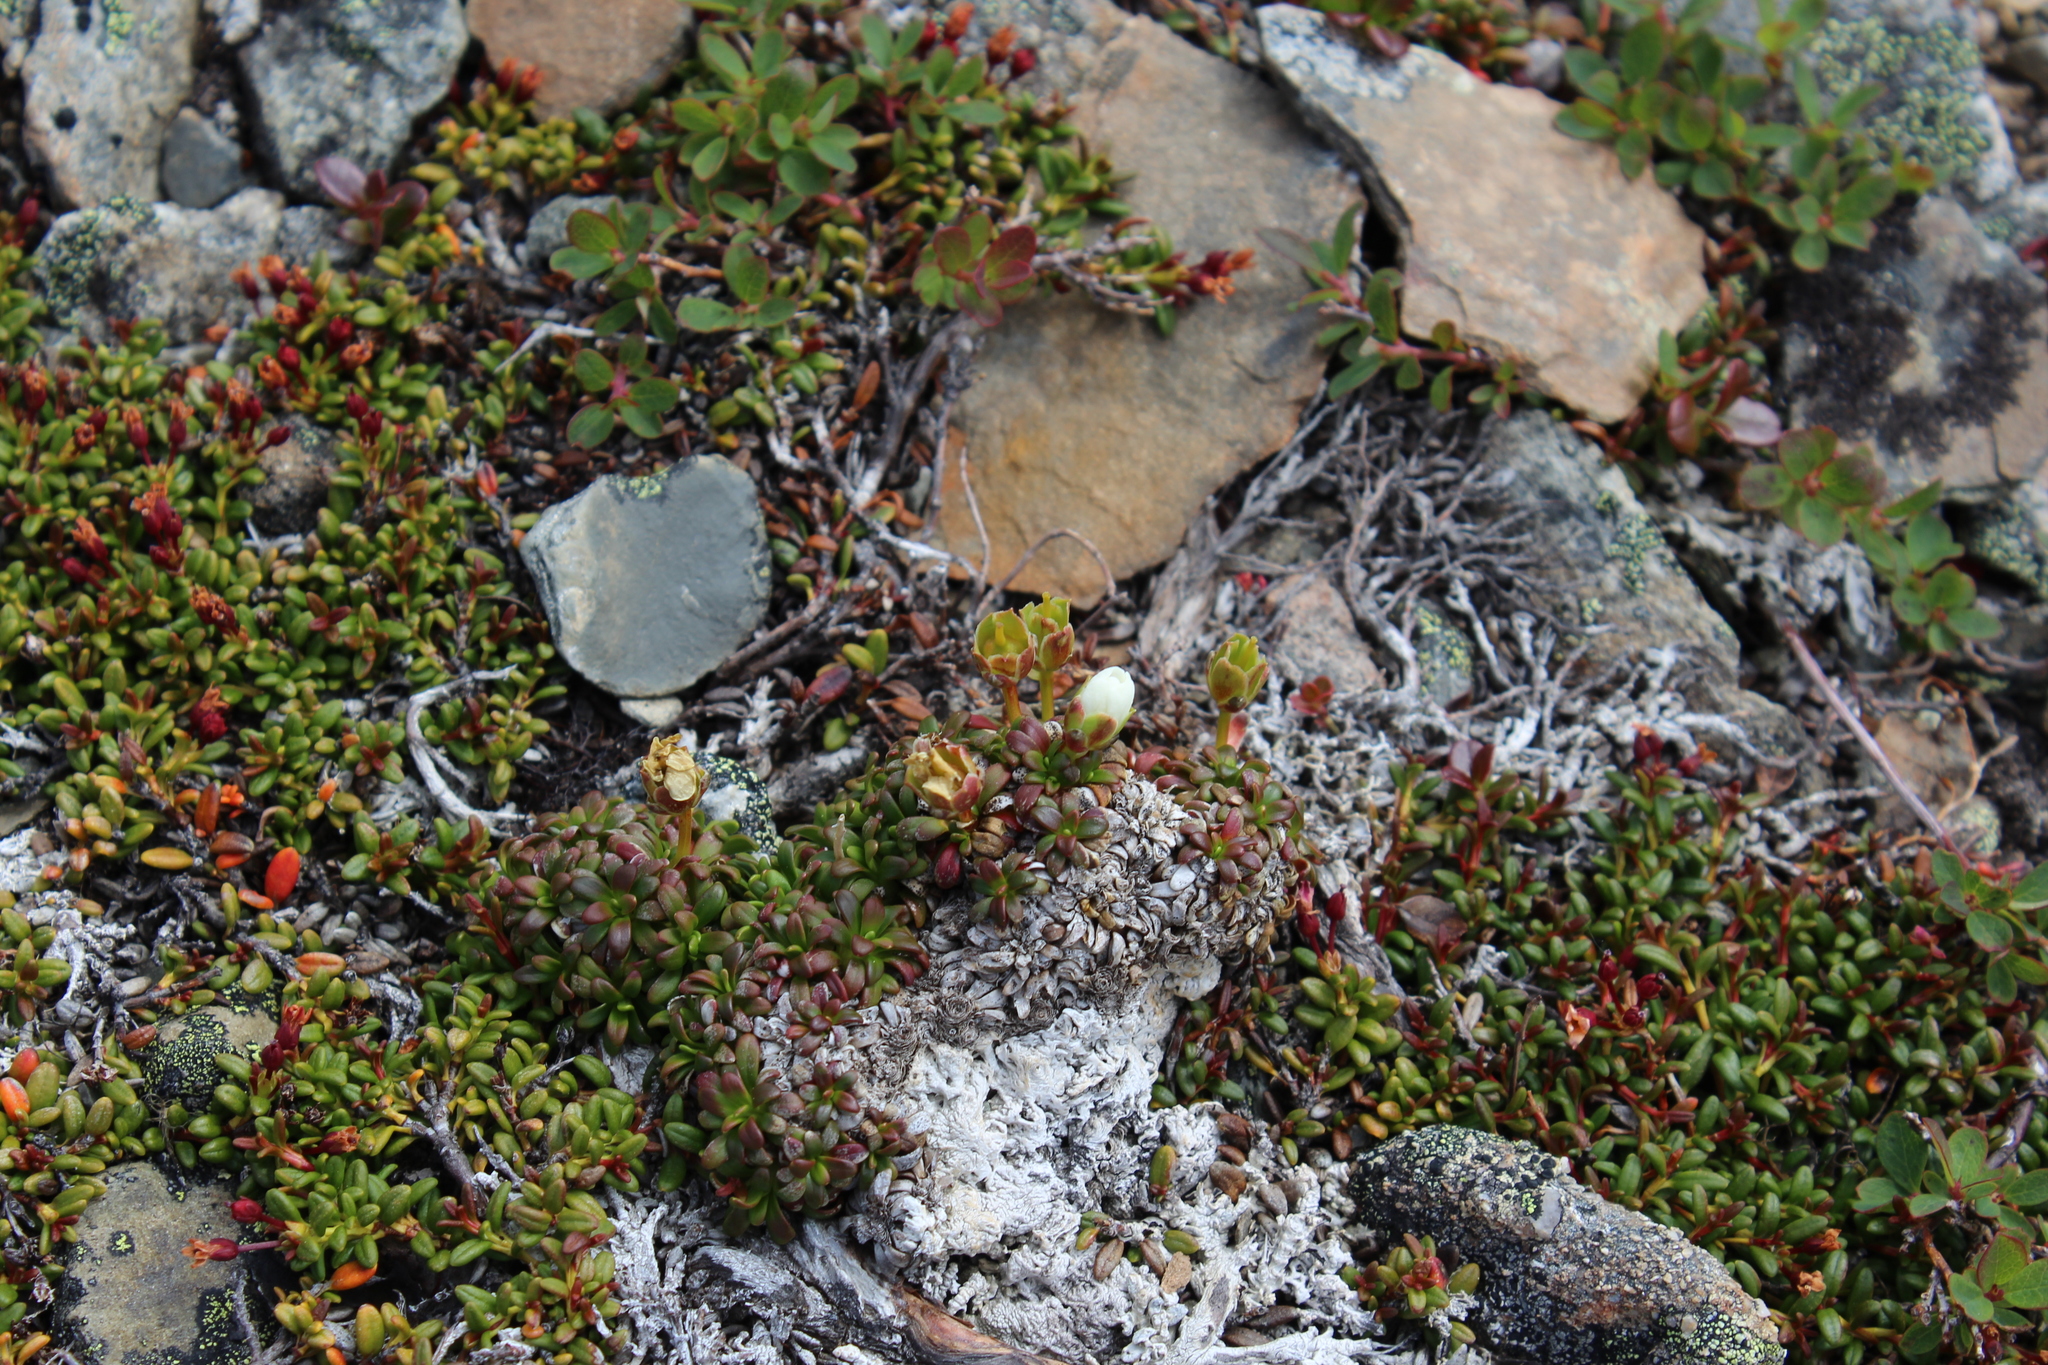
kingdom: Plantae
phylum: Tracheophyta
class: Magnoliopsida
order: Ericales
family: Diapensiaceae
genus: Diapensia
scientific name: Diapensia lapponica
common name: Diapensia
